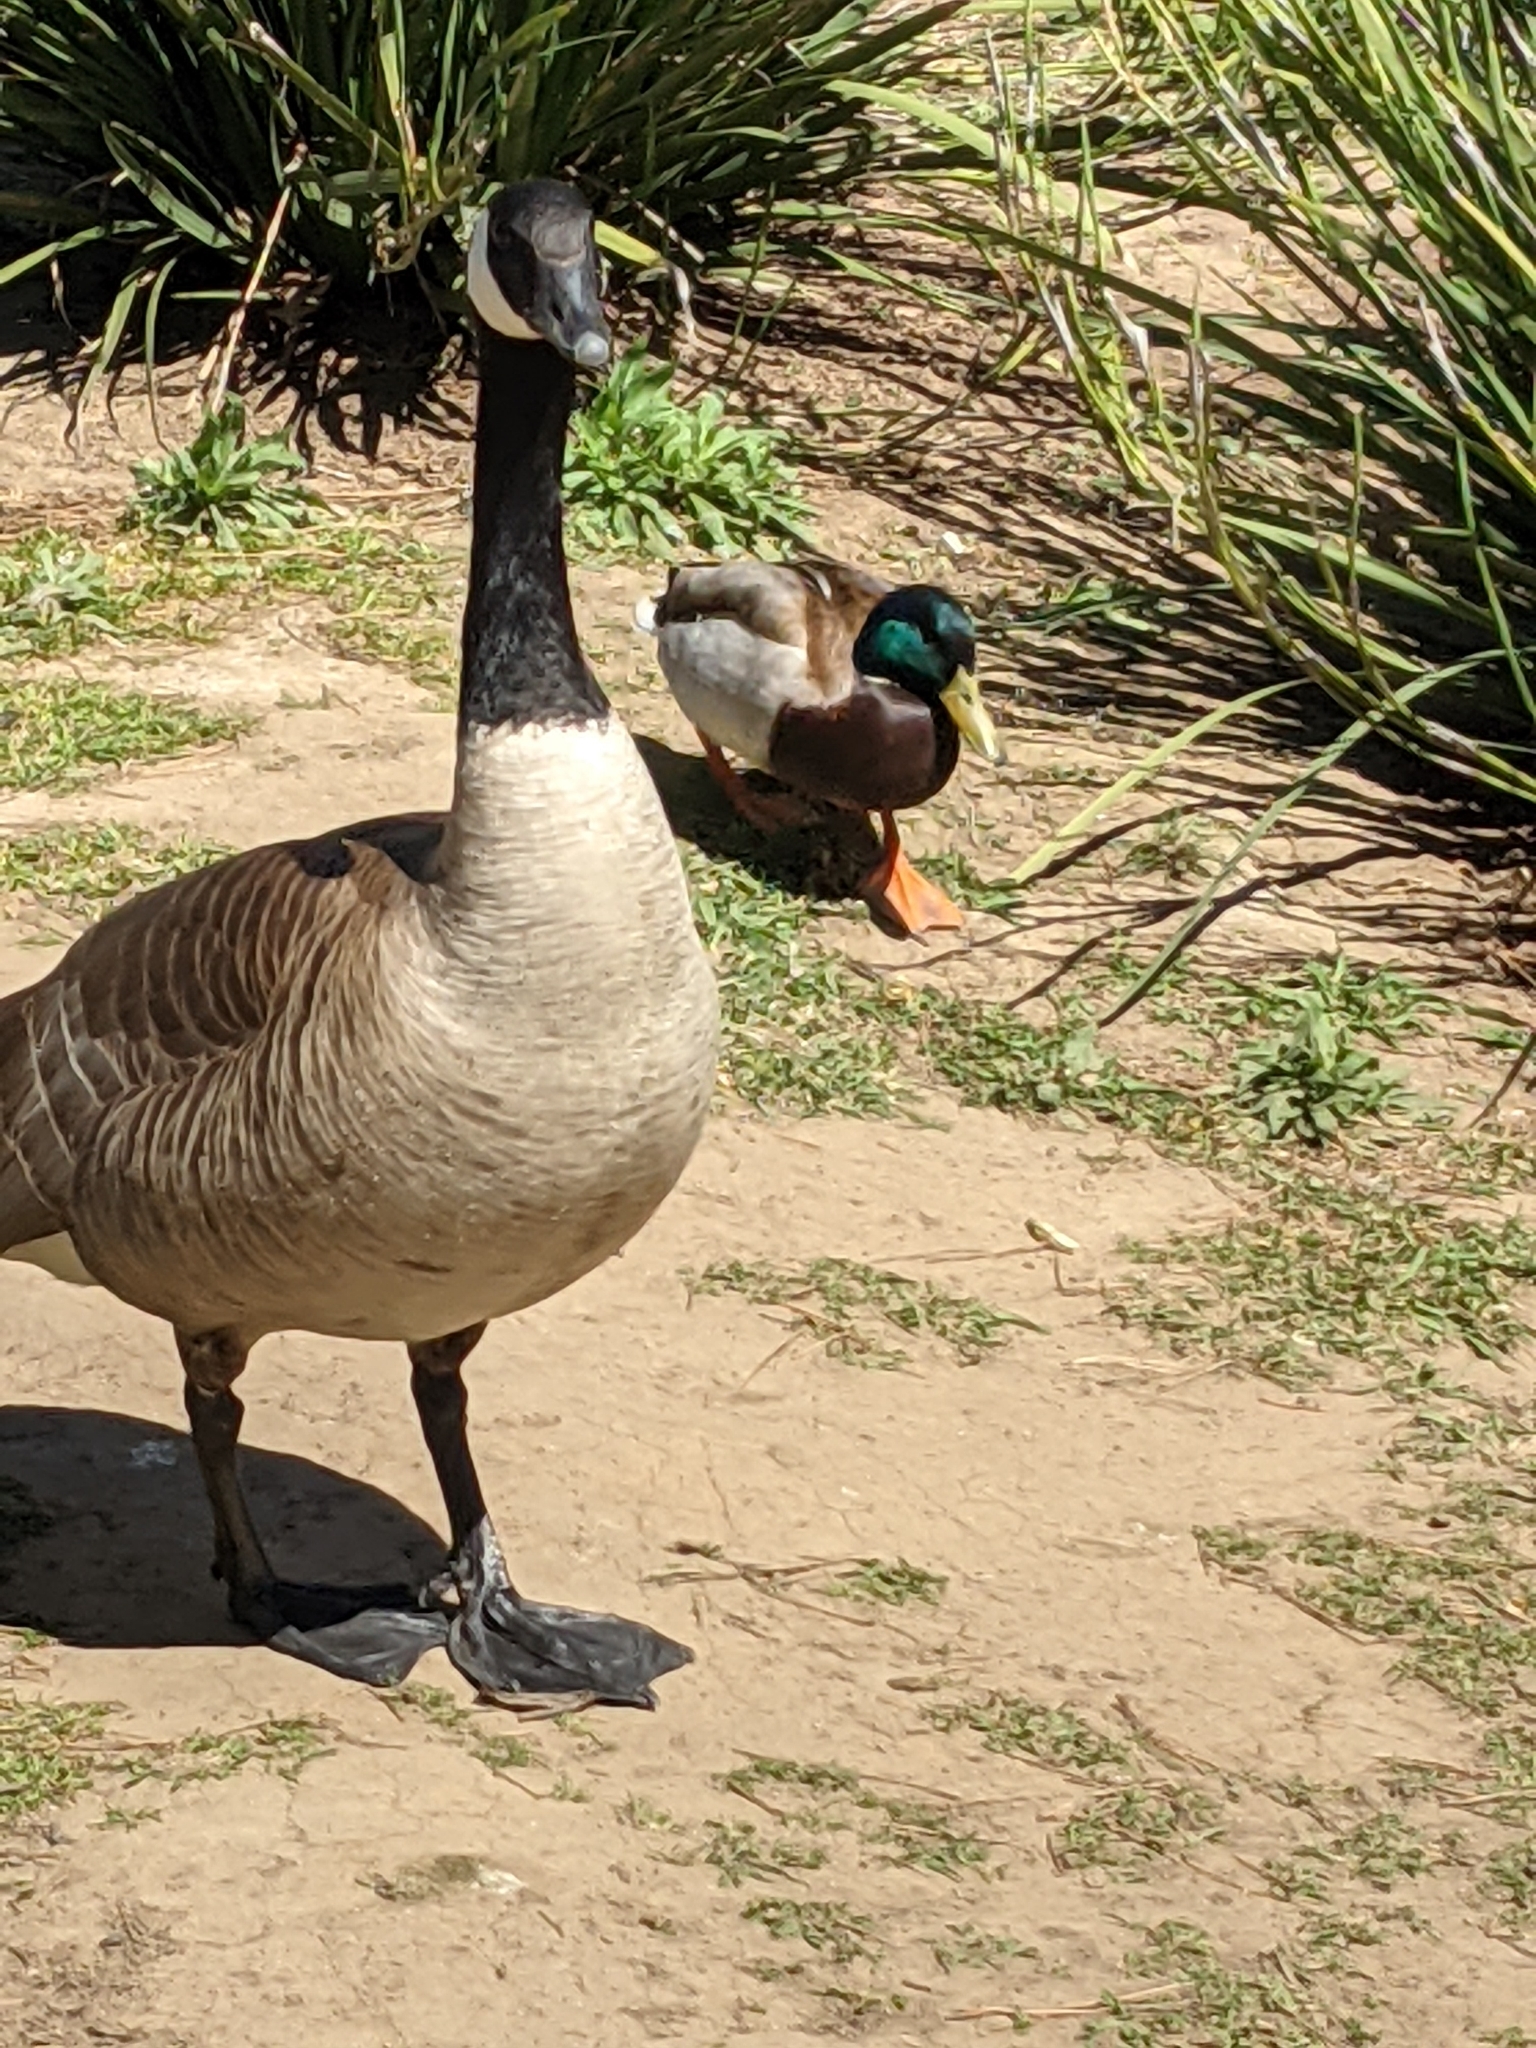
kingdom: Animalia
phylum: Chordata
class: Aves
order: Anseriformes
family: Anatidae
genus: Branta
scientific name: Branta canadensis
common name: Canada goose
